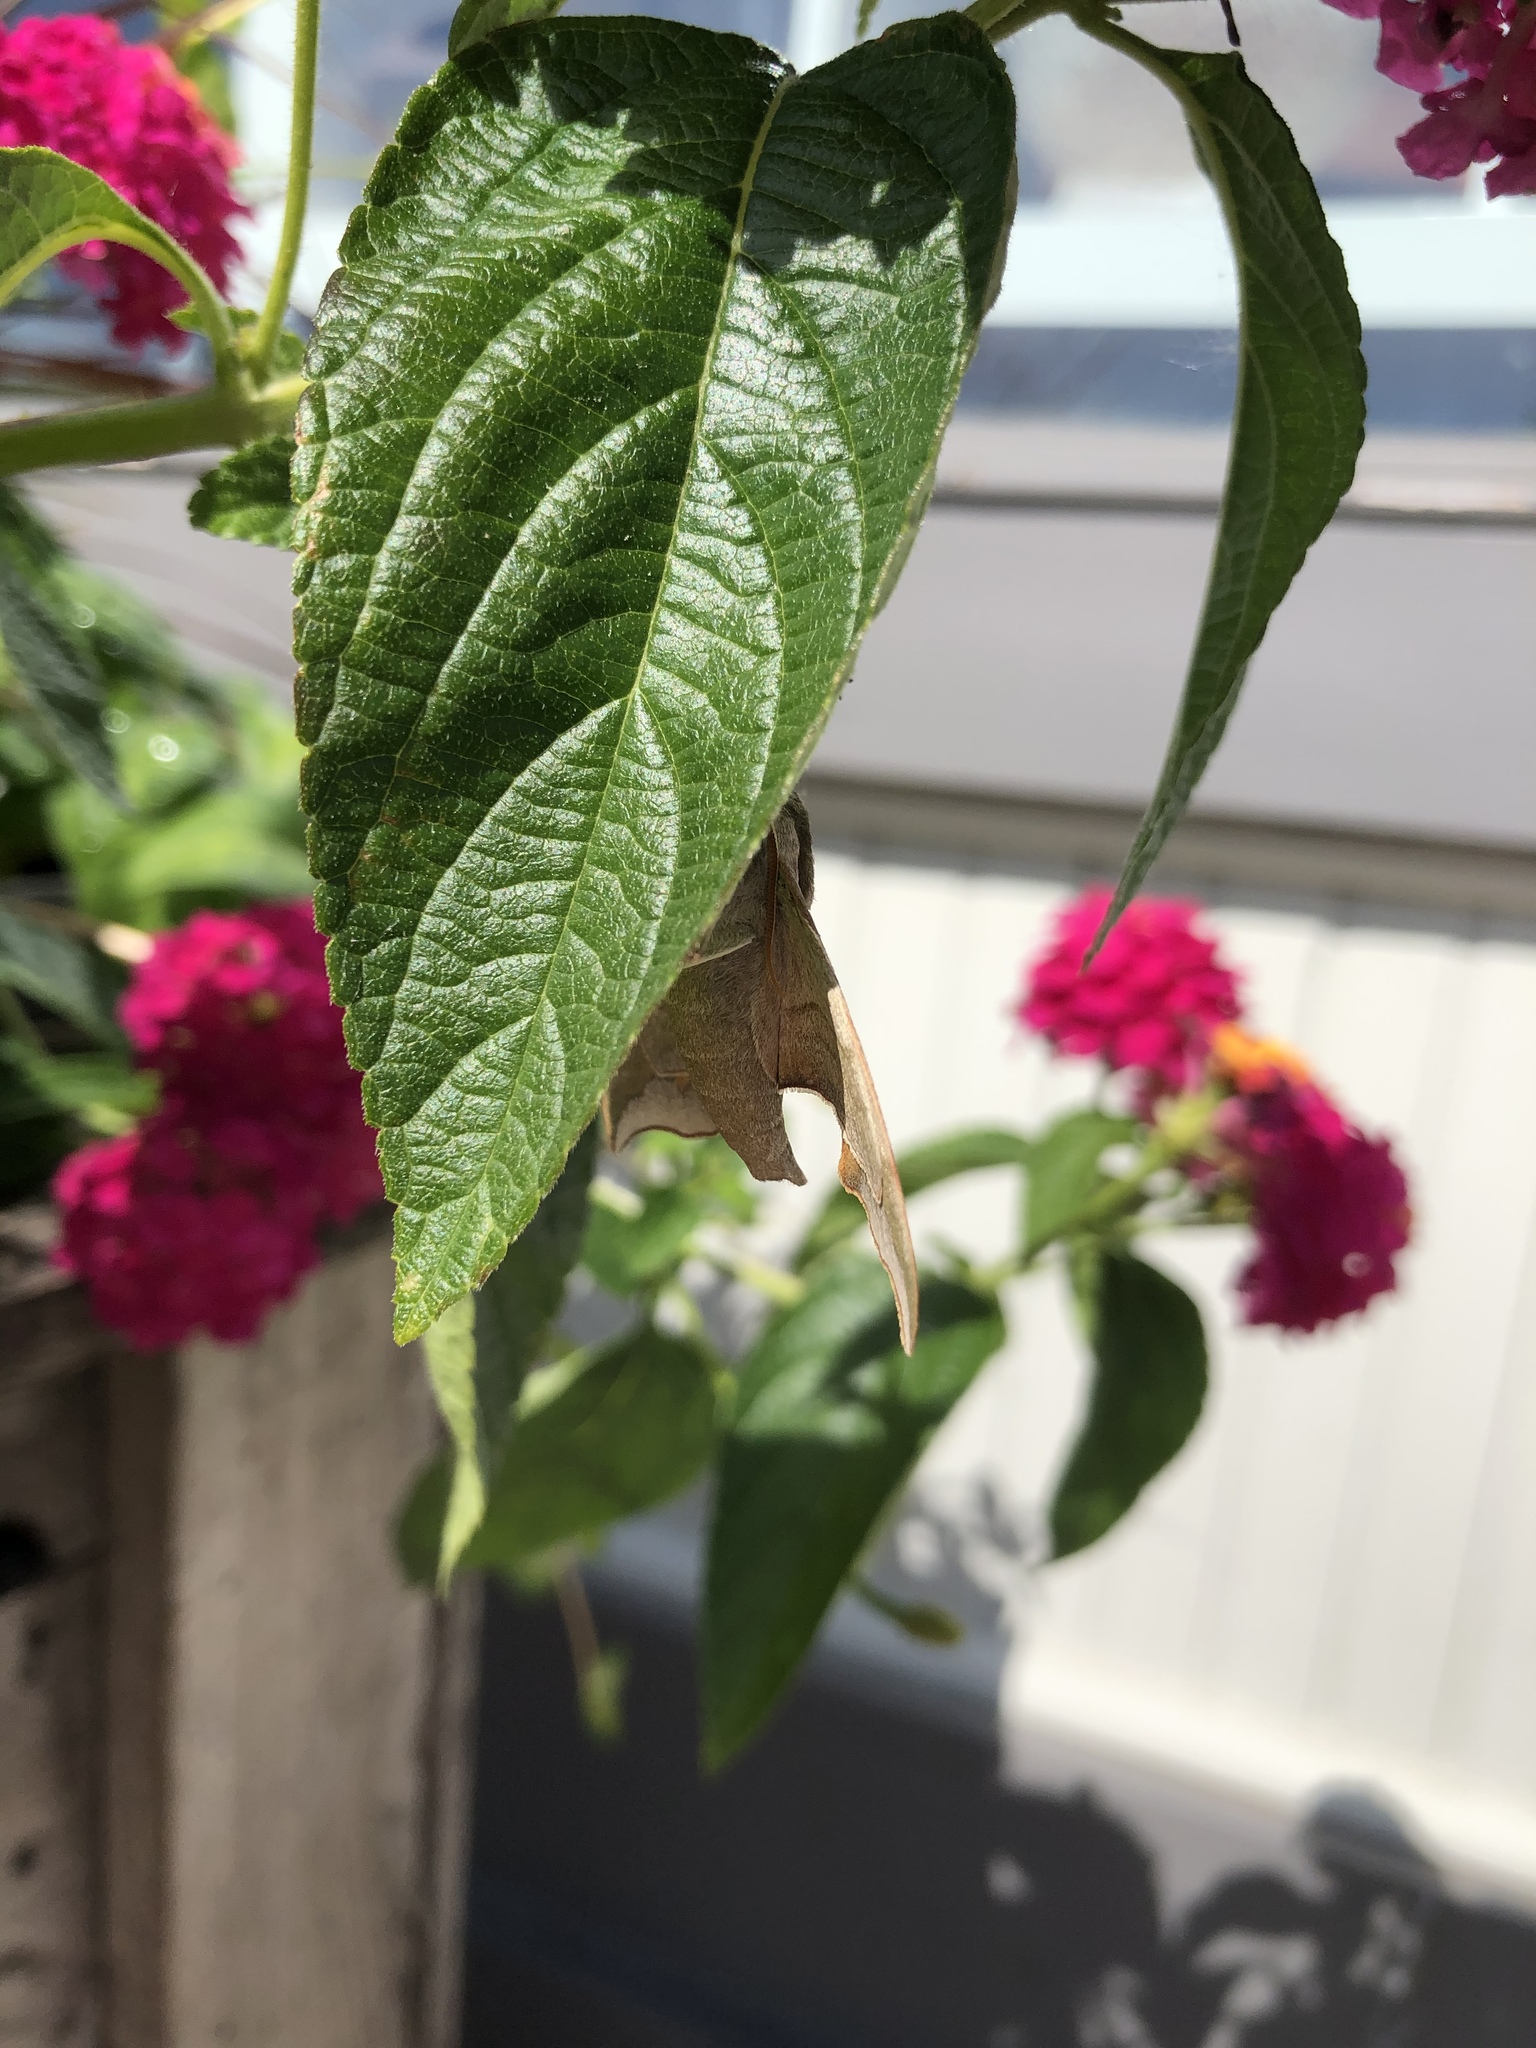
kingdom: Animalia
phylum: Arthropoda
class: Insecta
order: Lepidoptera
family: Sphingidae
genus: Darapsa
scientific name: Darapsa myron
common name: Hog sphinx
